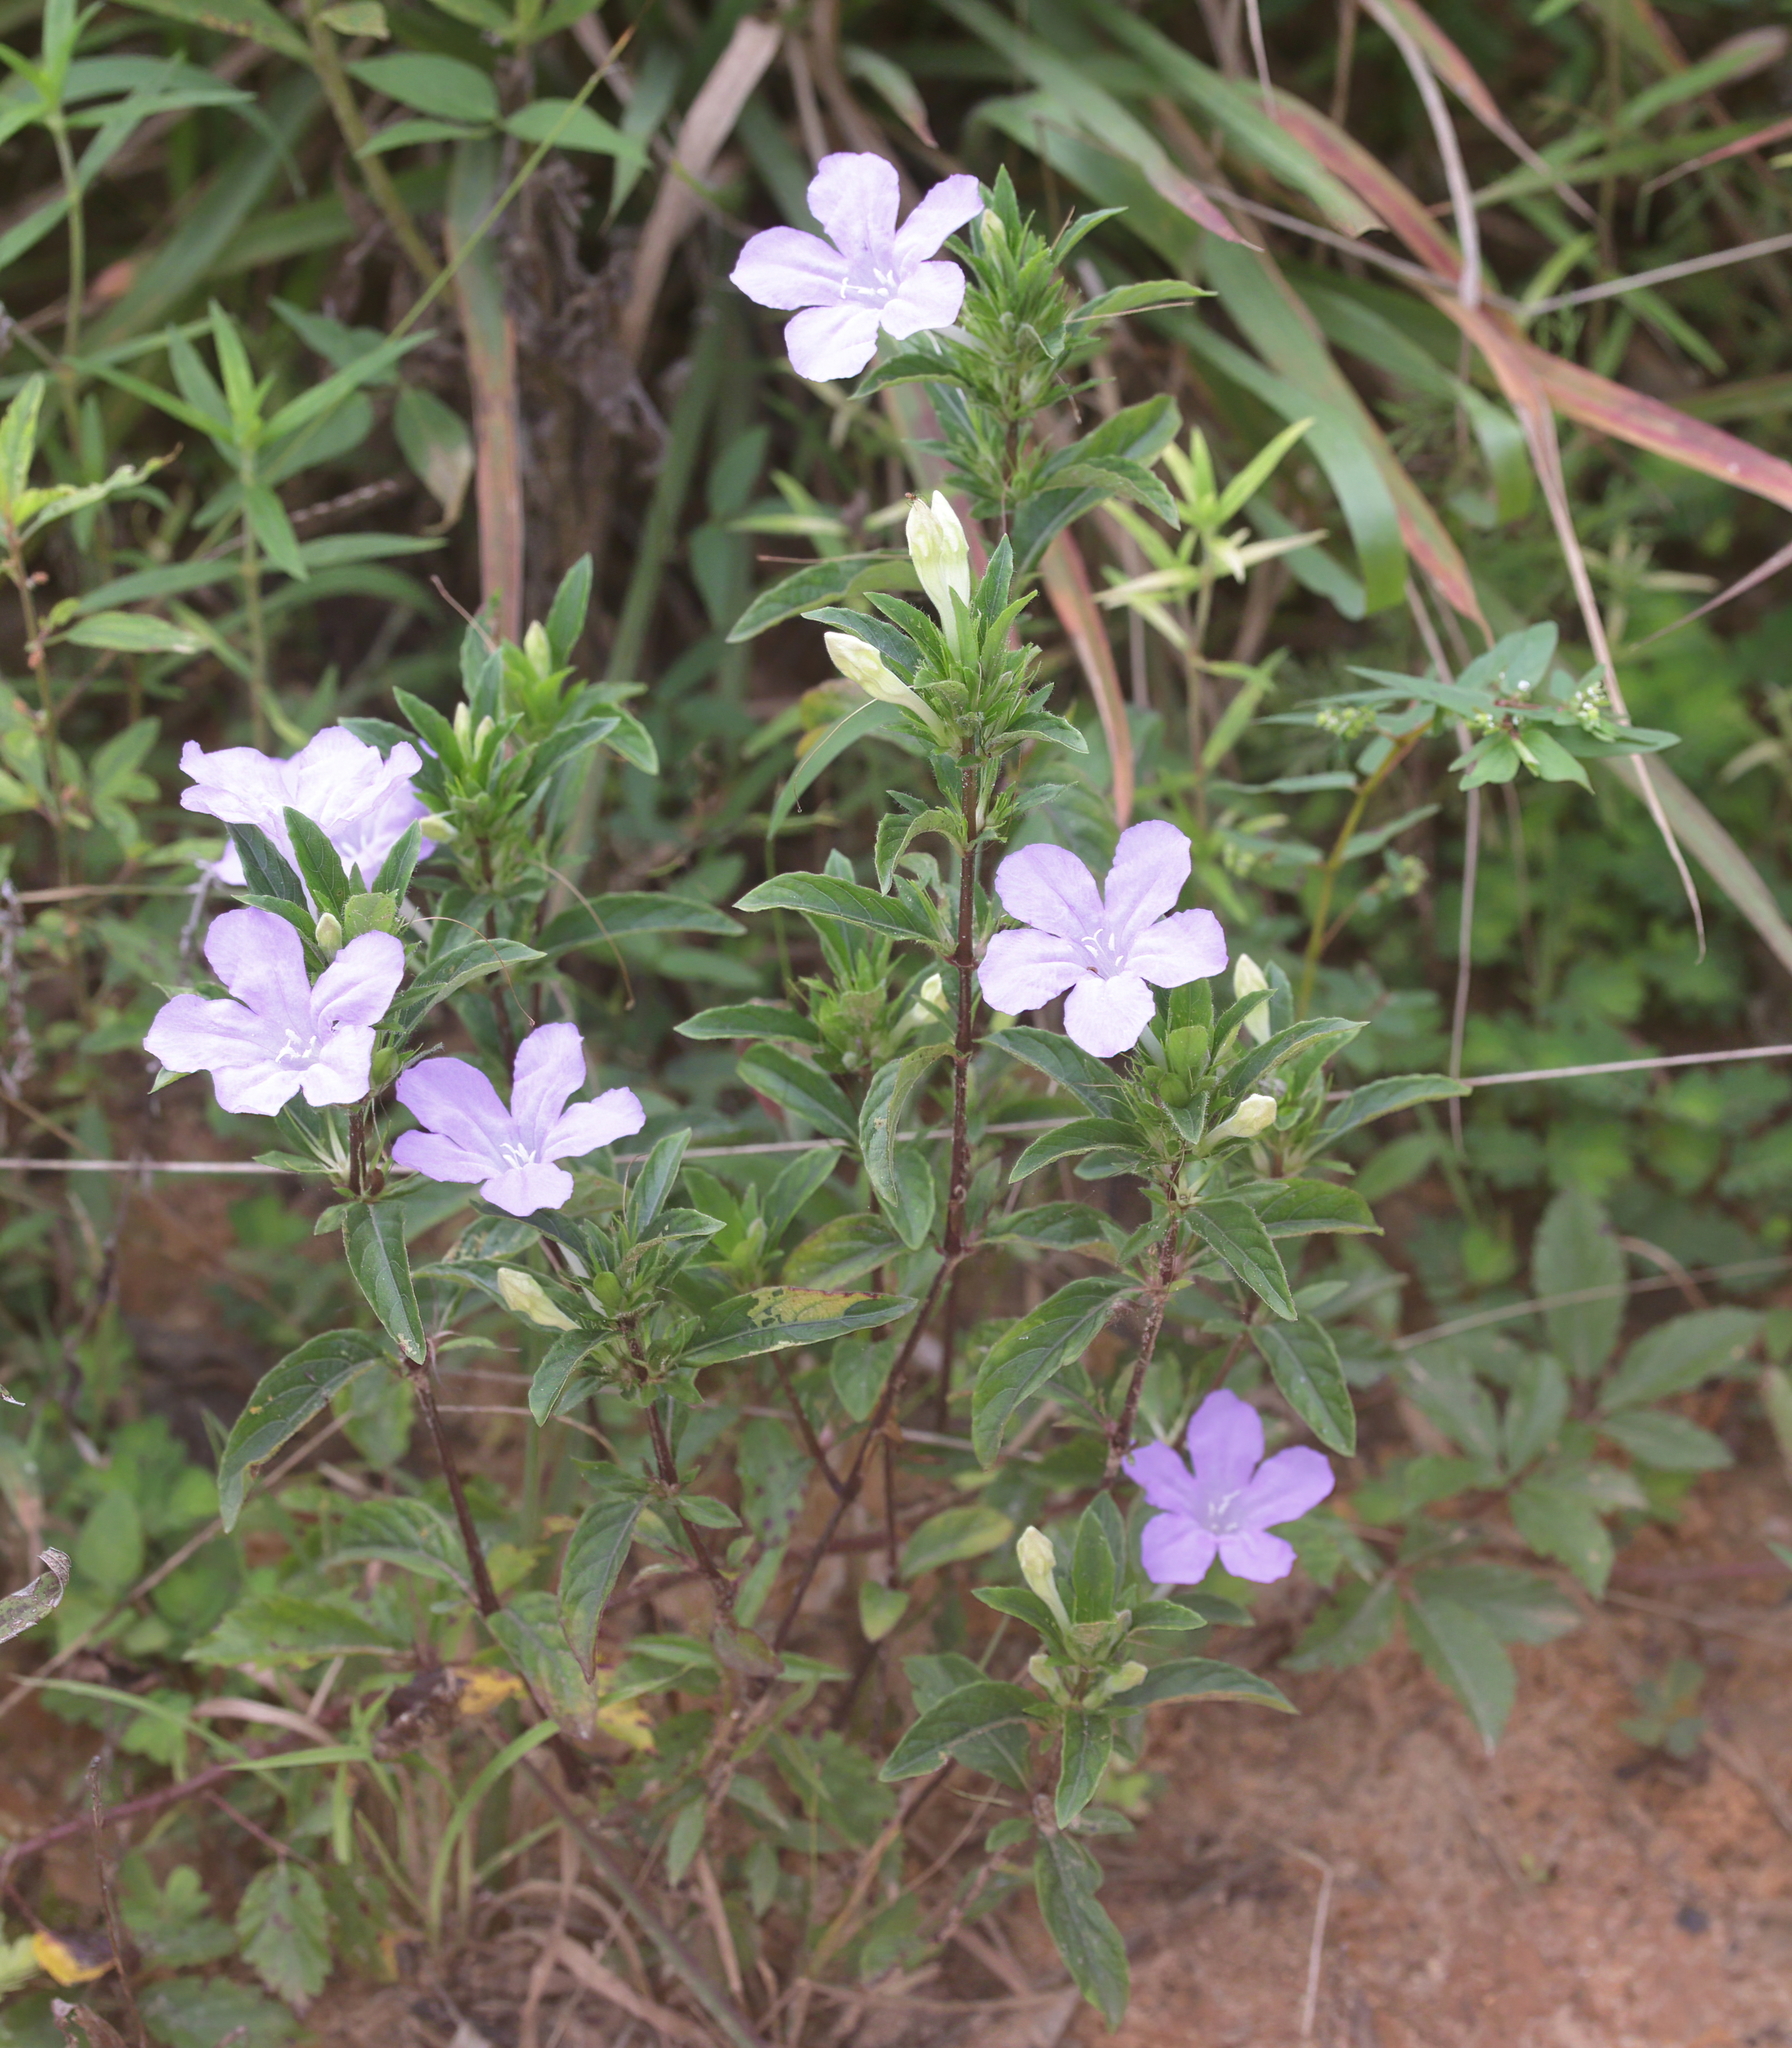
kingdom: Plantae
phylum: Tracheophyta
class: Magnoliopsida
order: Lamiales
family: Acanthaceae
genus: Ruellia
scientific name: Ruellia caroliniensis
